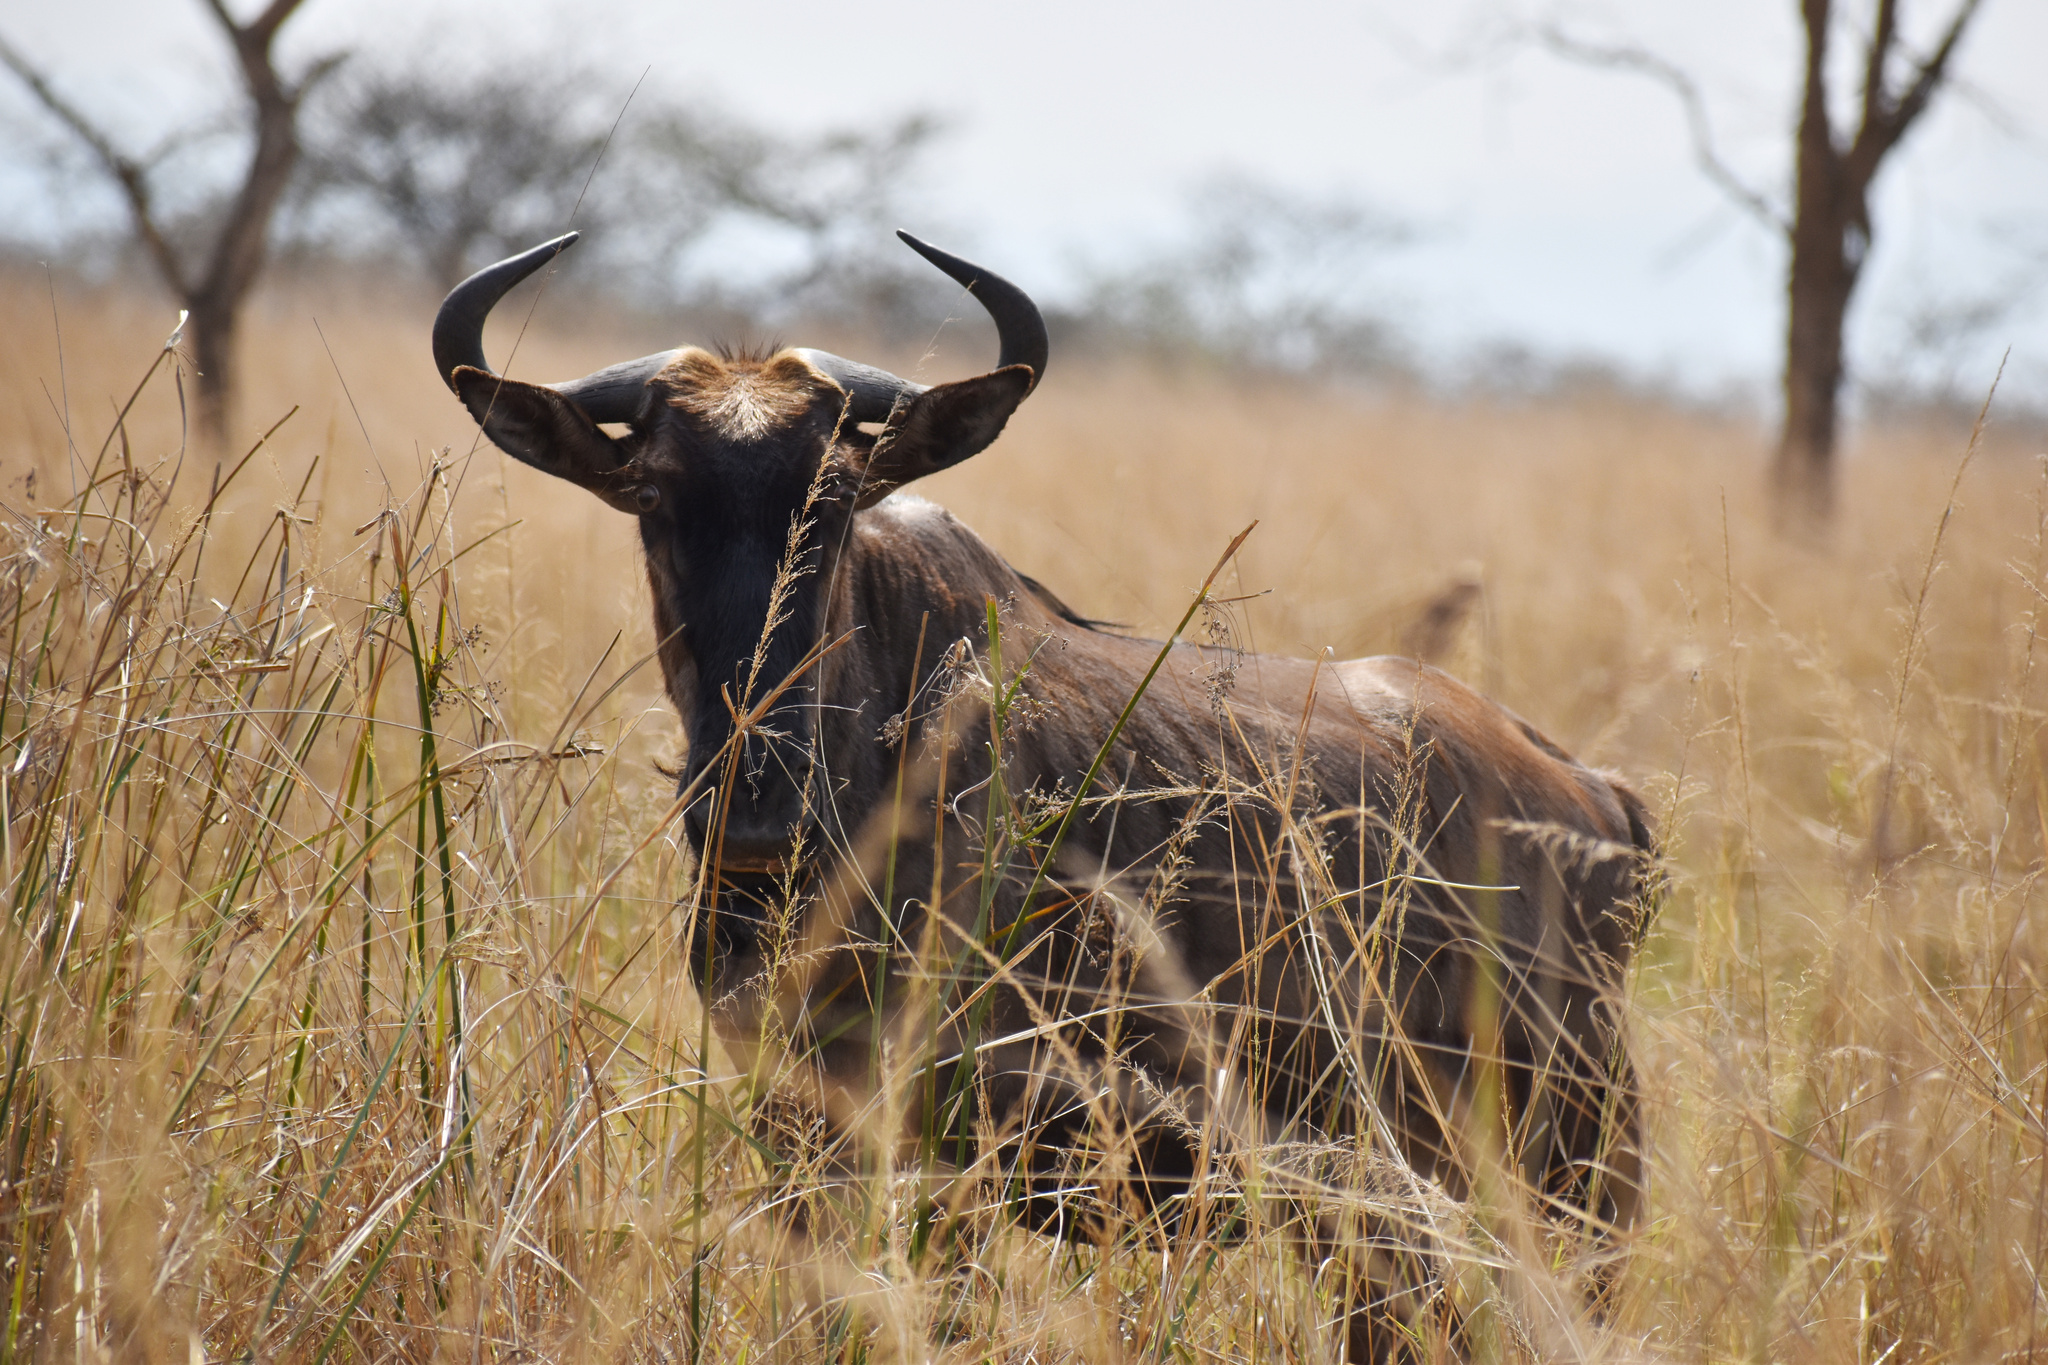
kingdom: Animalia
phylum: Chordata
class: Mammalia
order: Artiodactyla
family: Bovidae
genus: Connochaetes
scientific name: Connochaetes taurinus
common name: Blue wildebeest
